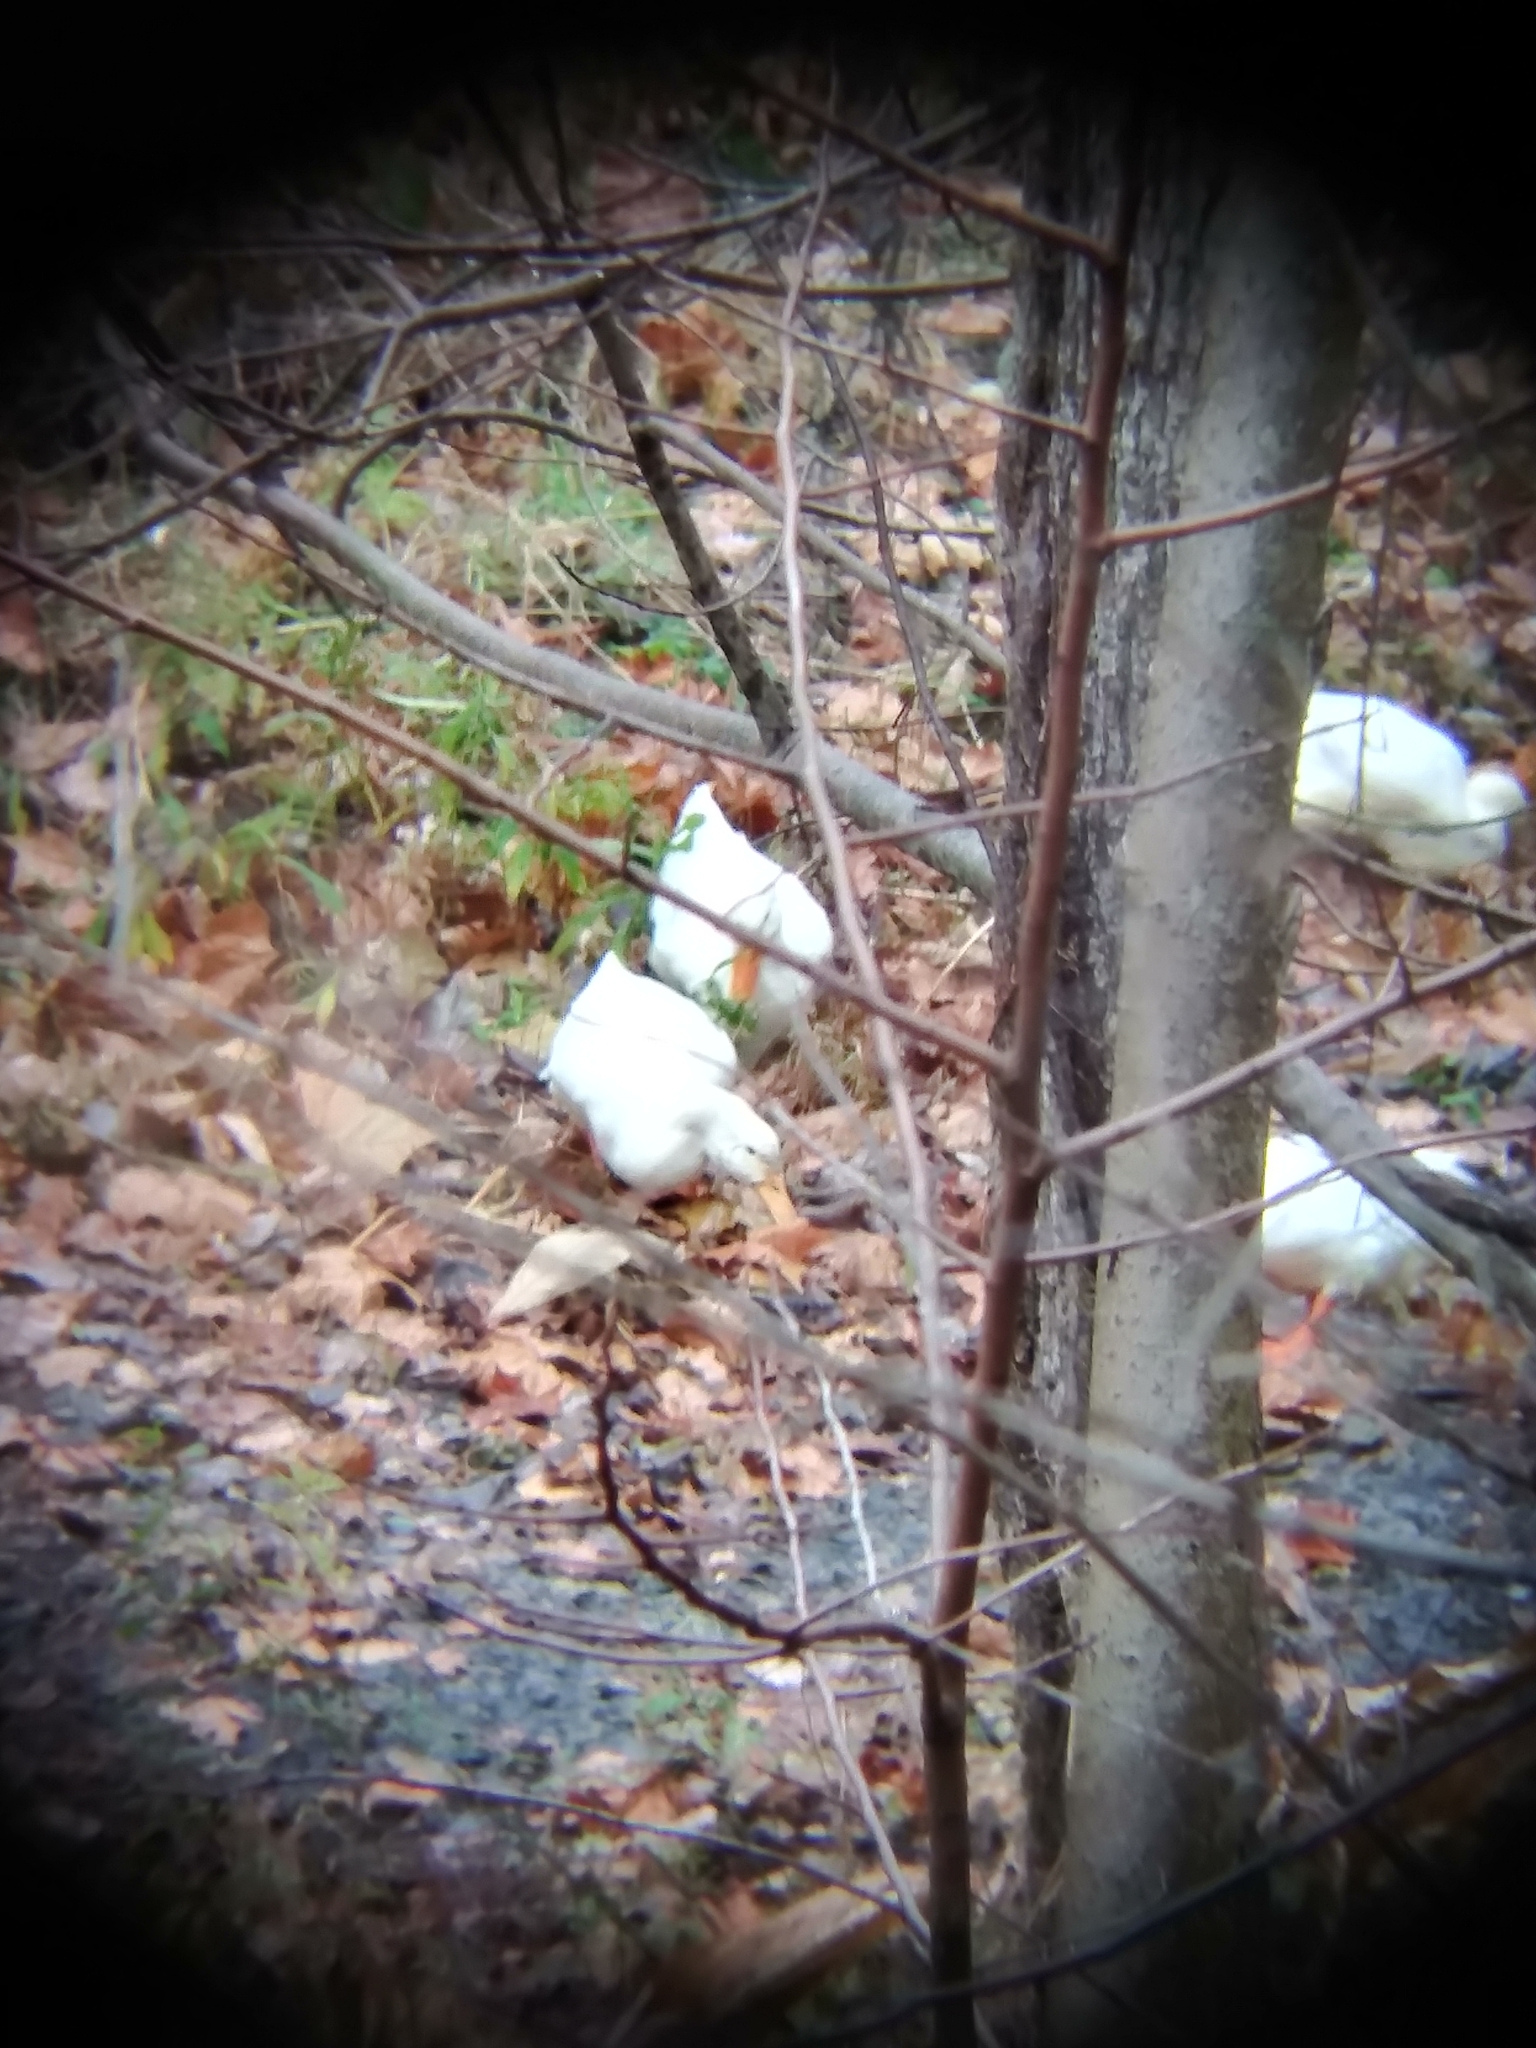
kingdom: Animalia
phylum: Chordata
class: Aves
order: Anseriformes
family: Anatidae
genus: Anas
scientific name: Anas platyrhynchos
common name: Mallard
